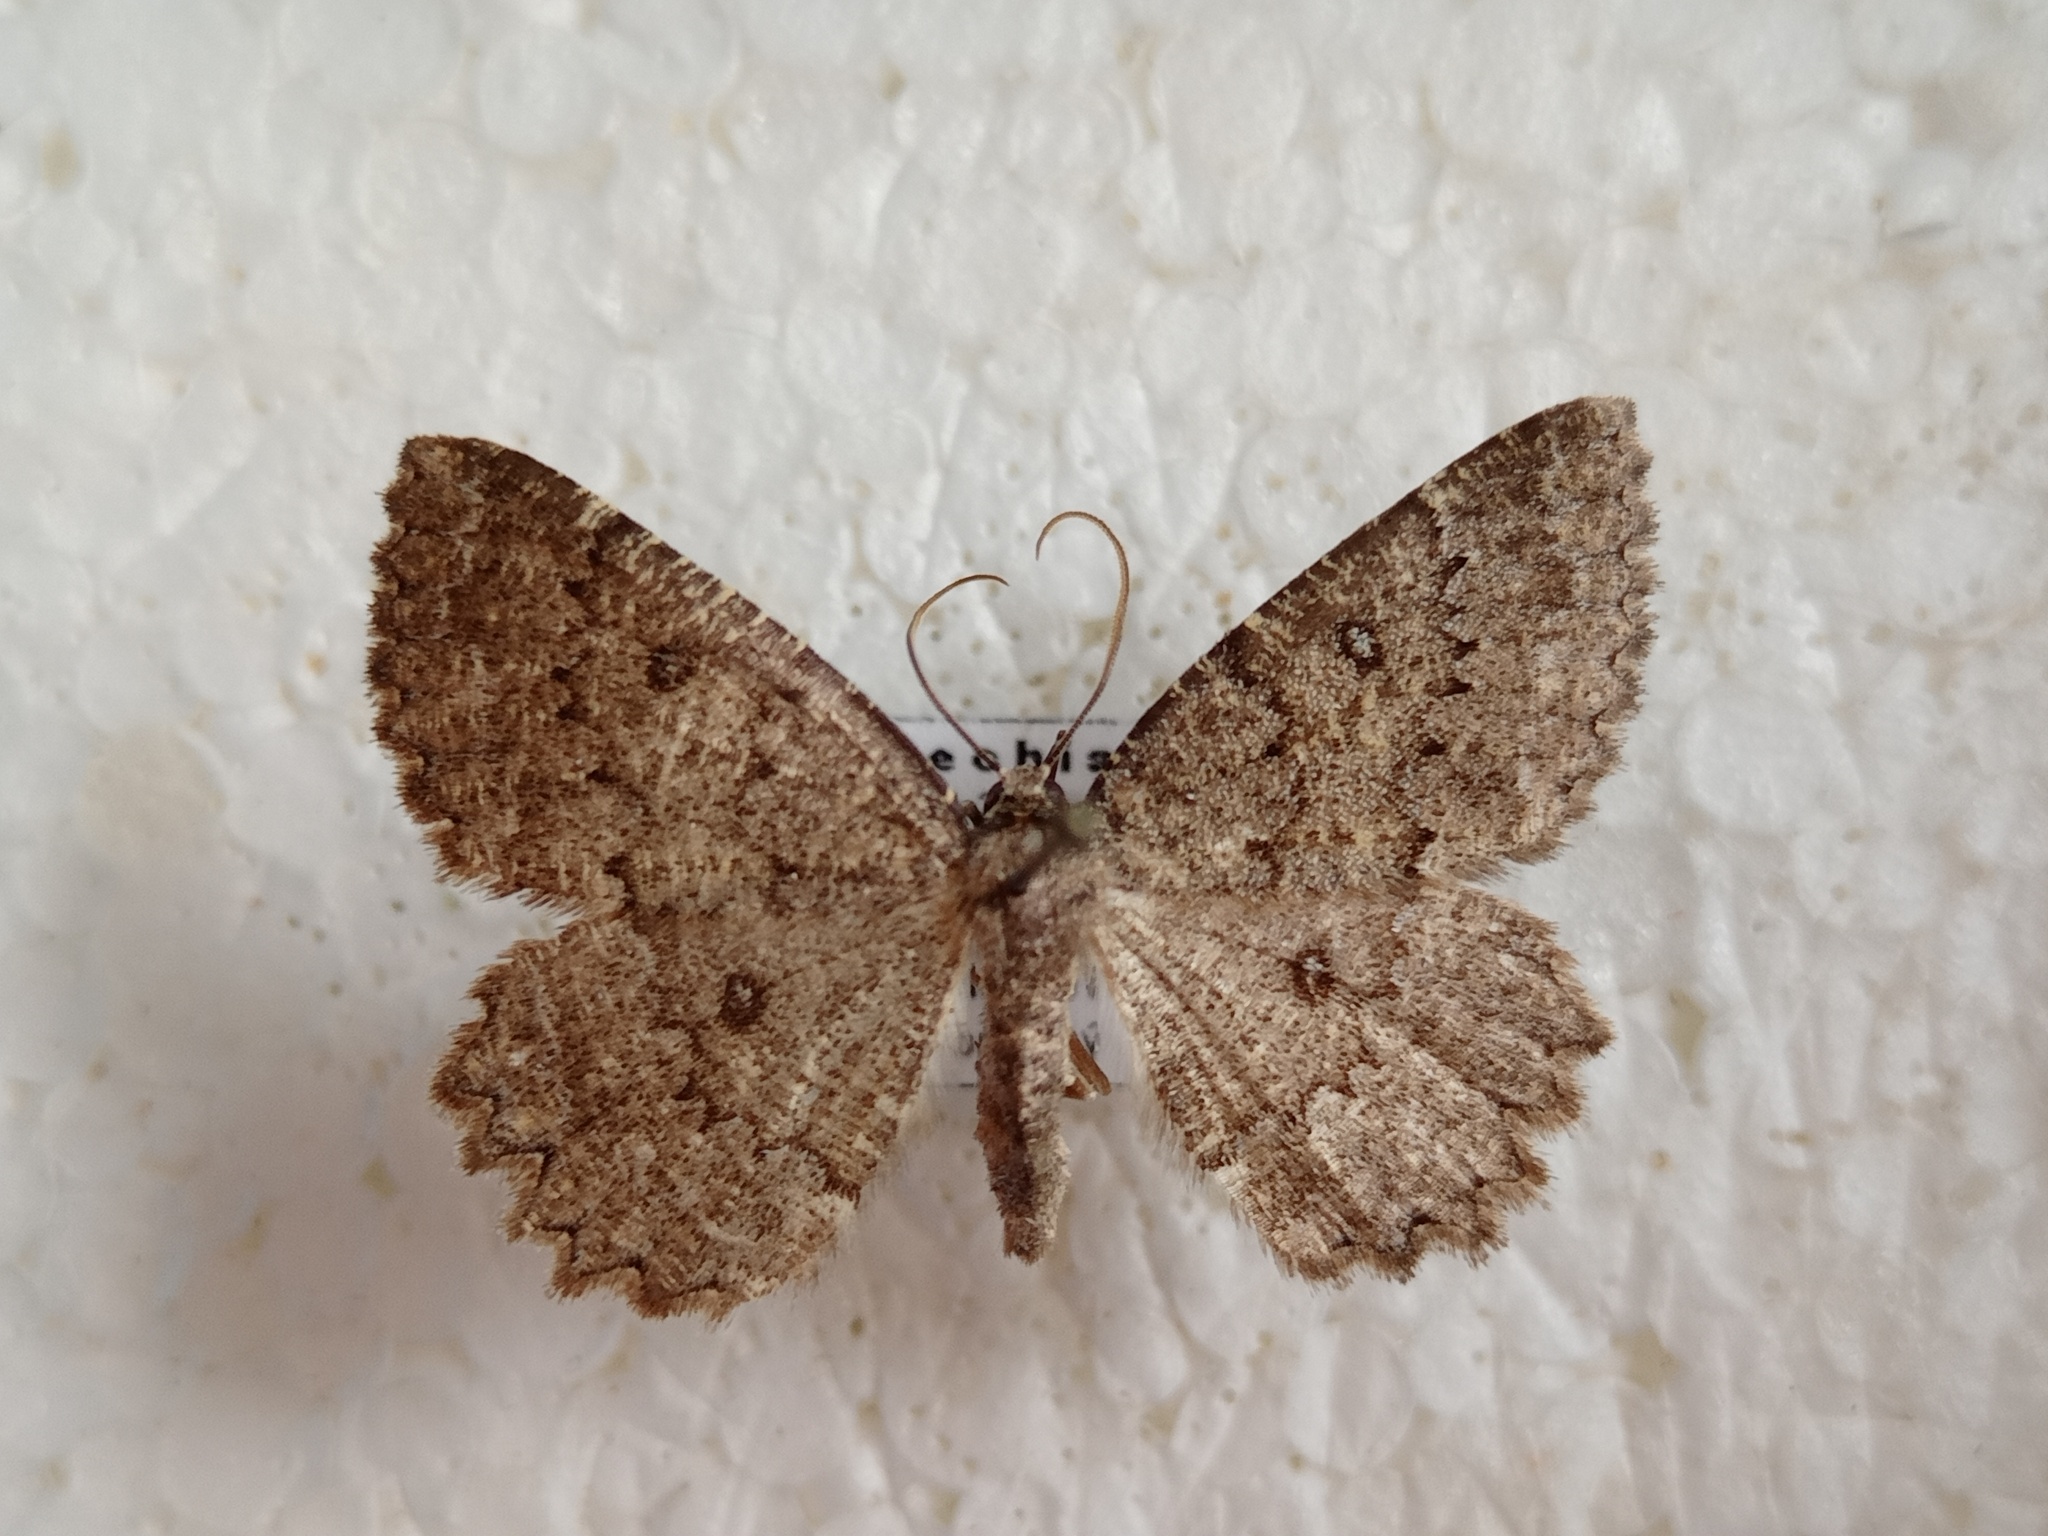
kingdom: Animalia
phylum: Arthropoda
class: Insecta
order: Lepidoptera
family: Geometridae
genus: Charissa
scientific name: Charissa obscurata
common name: Annulet
